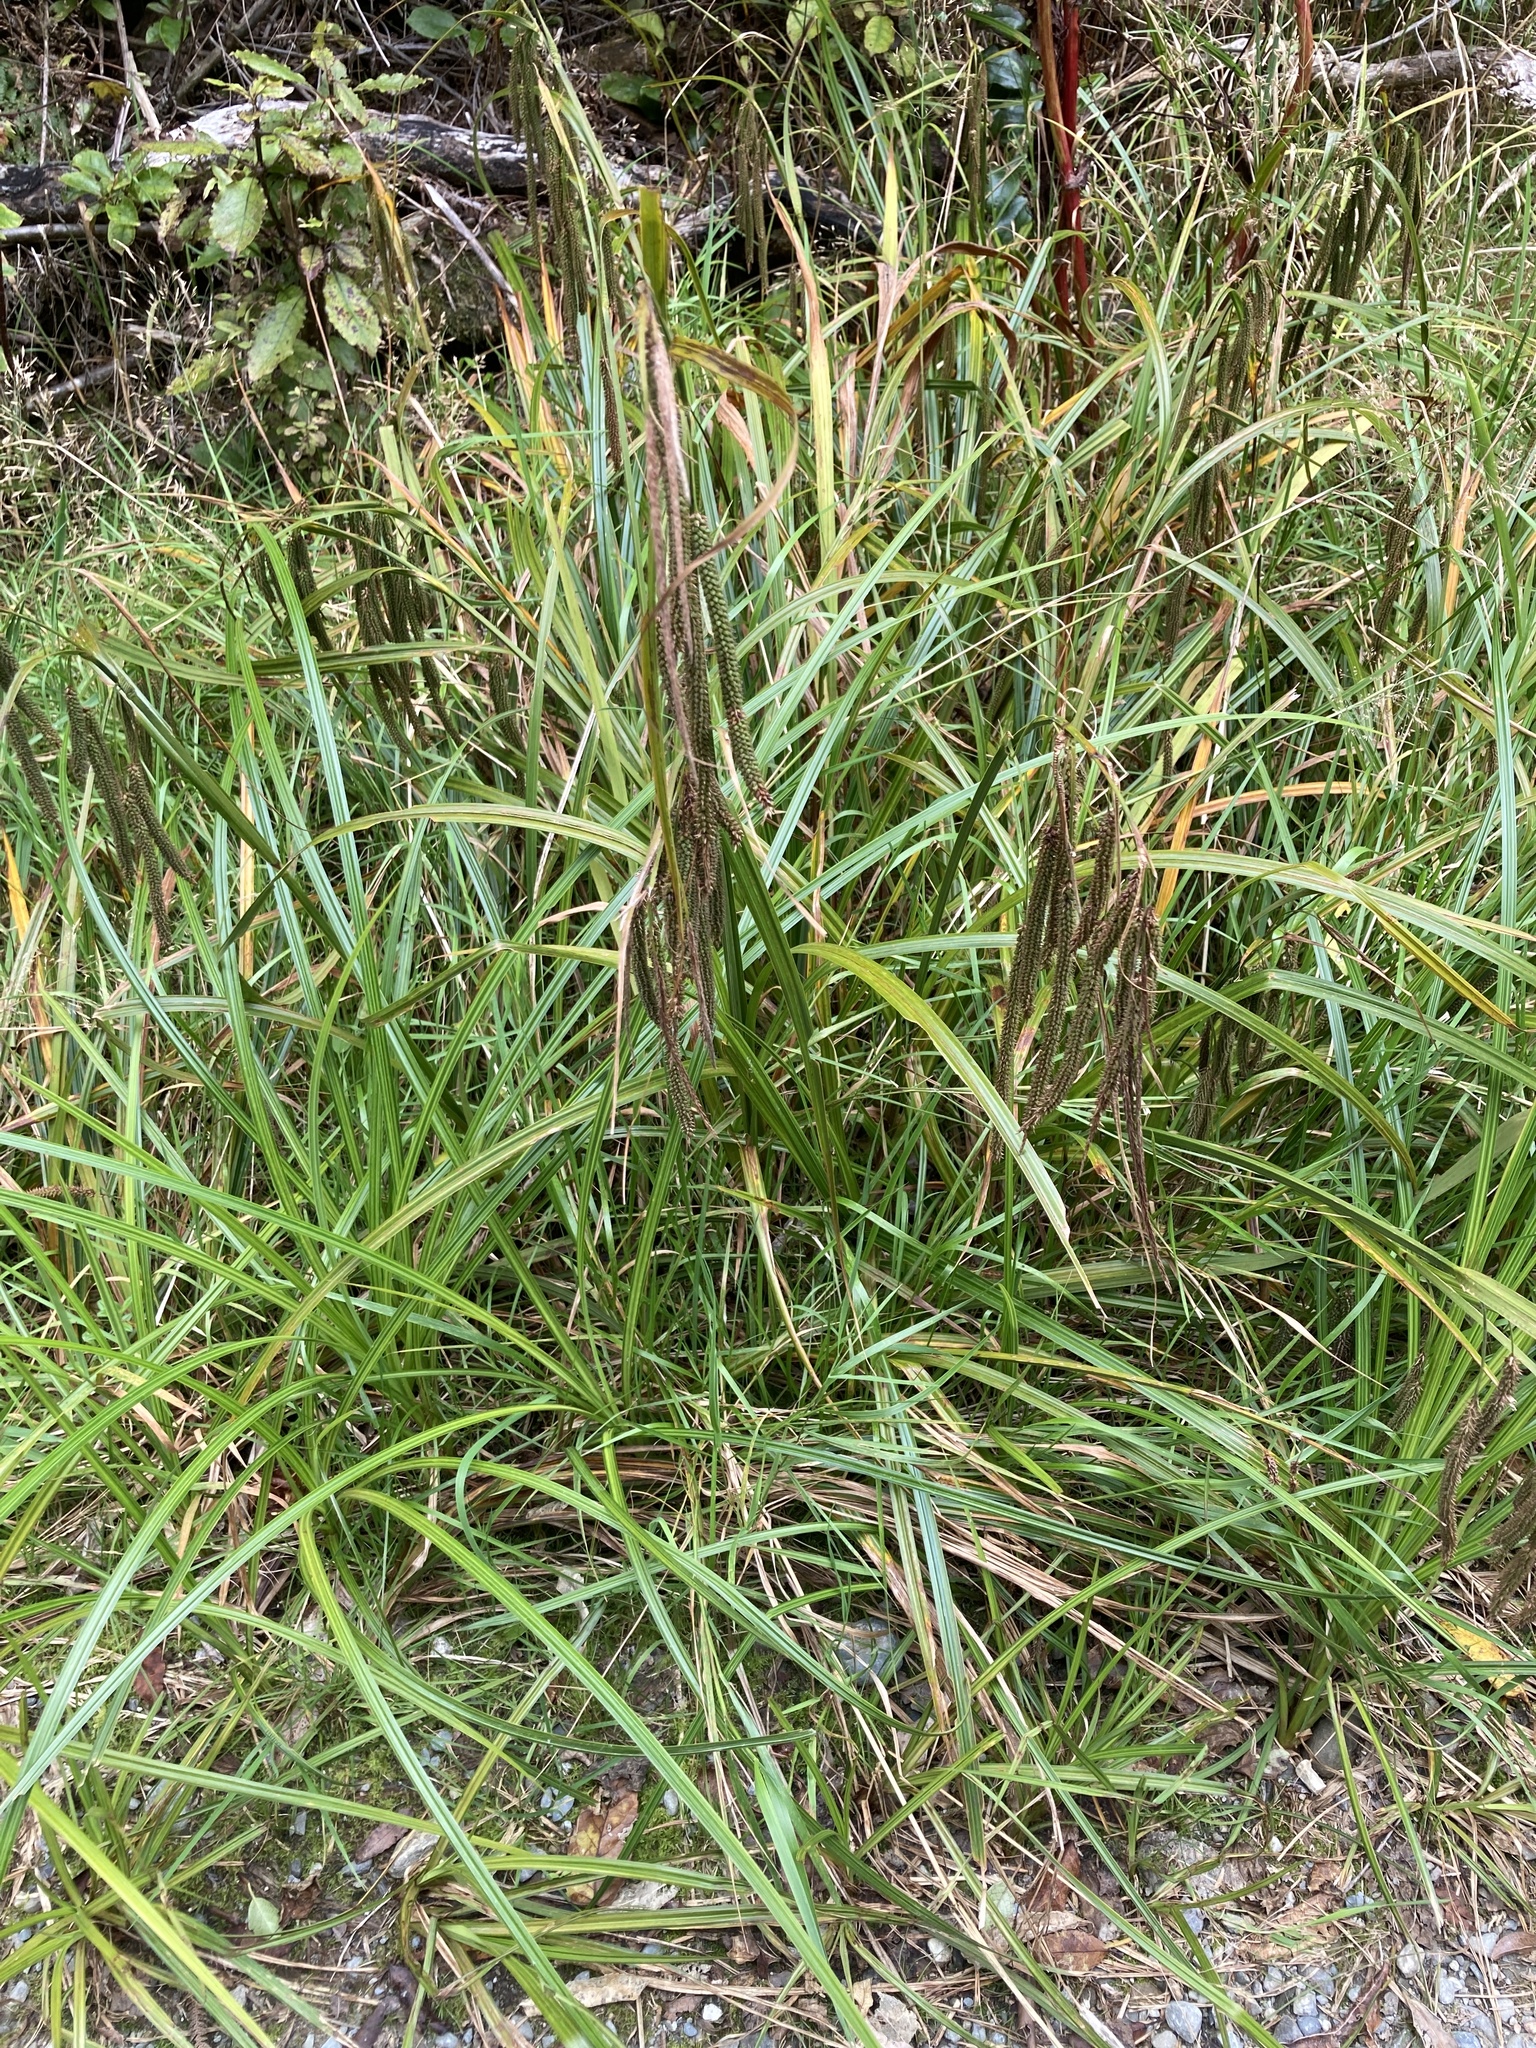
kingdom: Plantae
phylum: Tracheophyta
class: Liliopsida
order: Poales
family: Cyperaceae
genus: Carex
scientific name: Carex geminata
